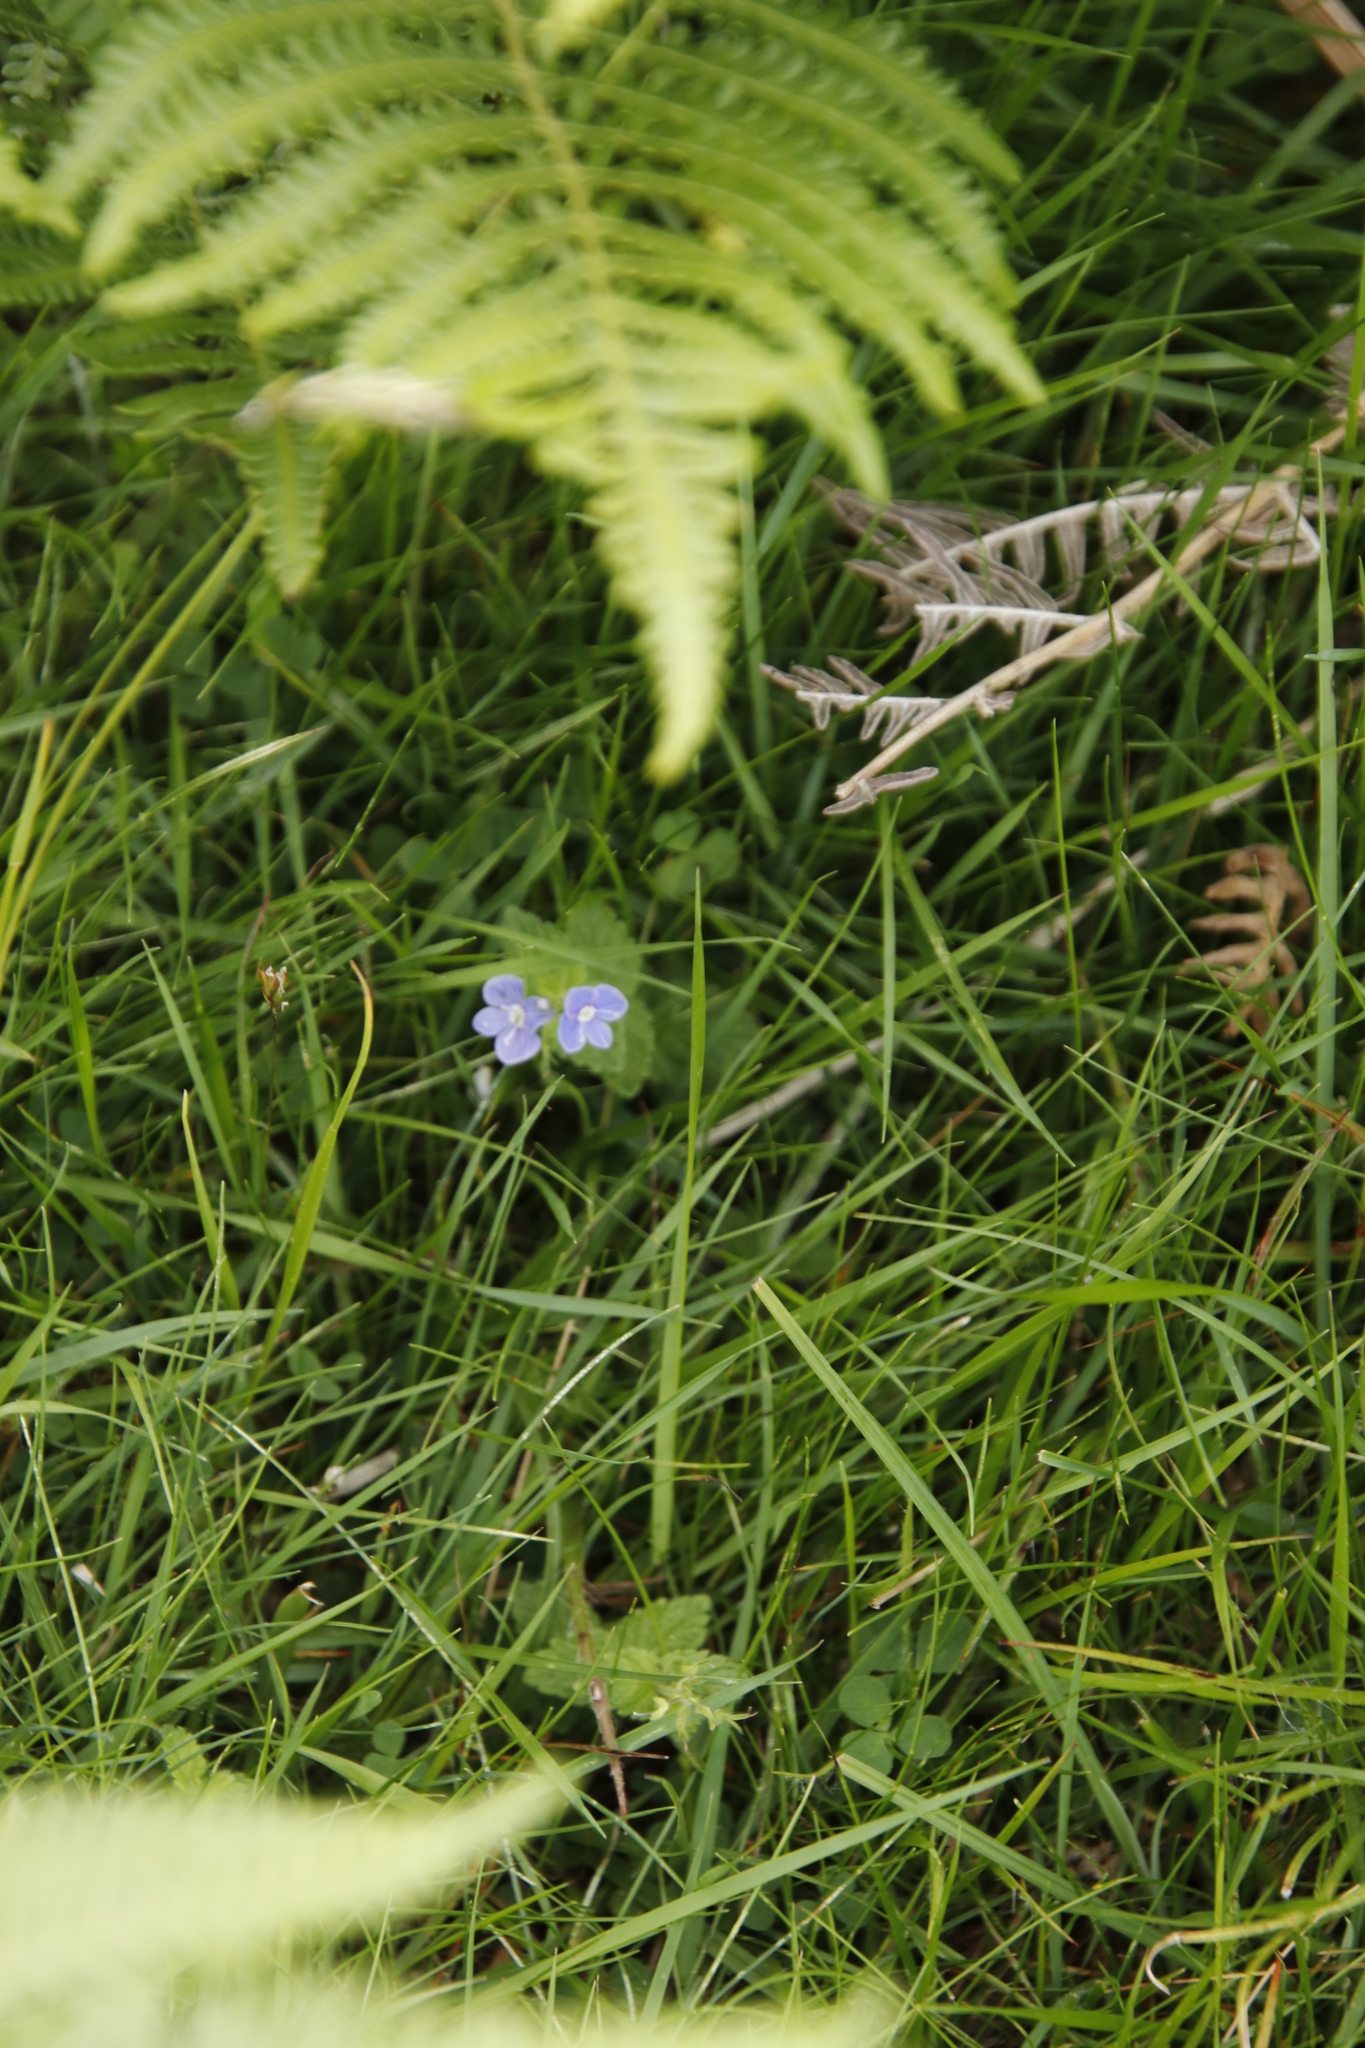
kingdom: Plantae
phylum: Tracheophyta
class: Magnoliopsida
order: Lamiales
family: Plantaginaceae
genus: Veronica
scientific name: Veronica chamaedrys
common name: Germander speedwell
